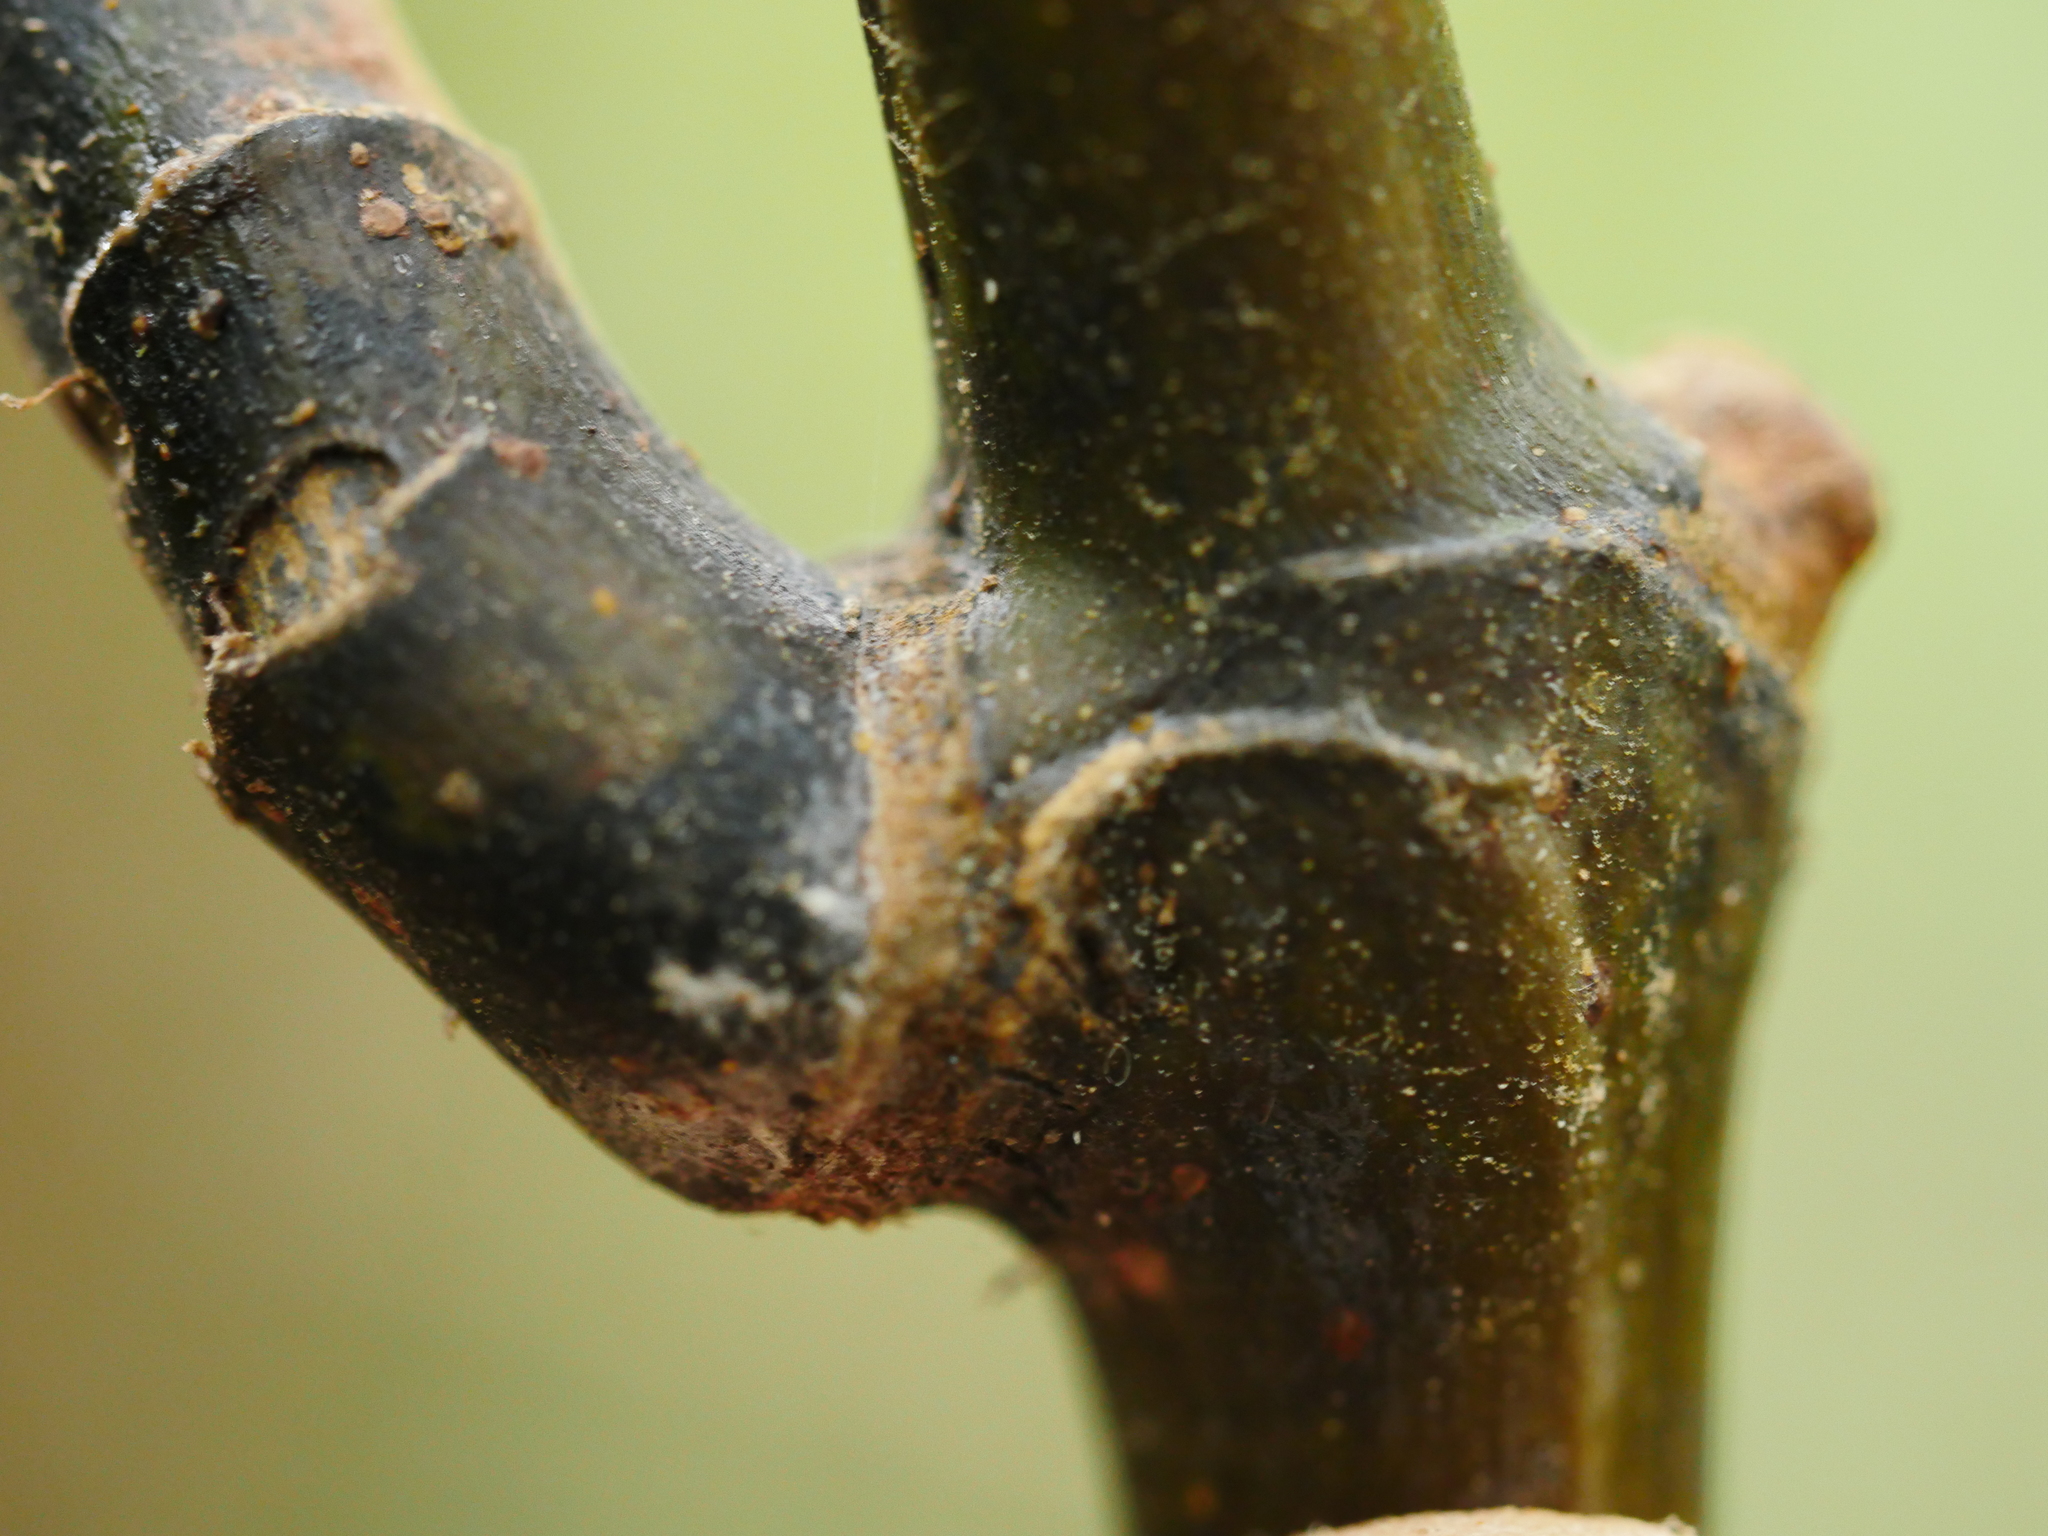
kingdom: Plantae
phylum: Tracheophyta
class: Liliopsida
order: Liliales
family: Ripogonaceae
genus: Ripogonum
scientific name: Ripogonum scandens
